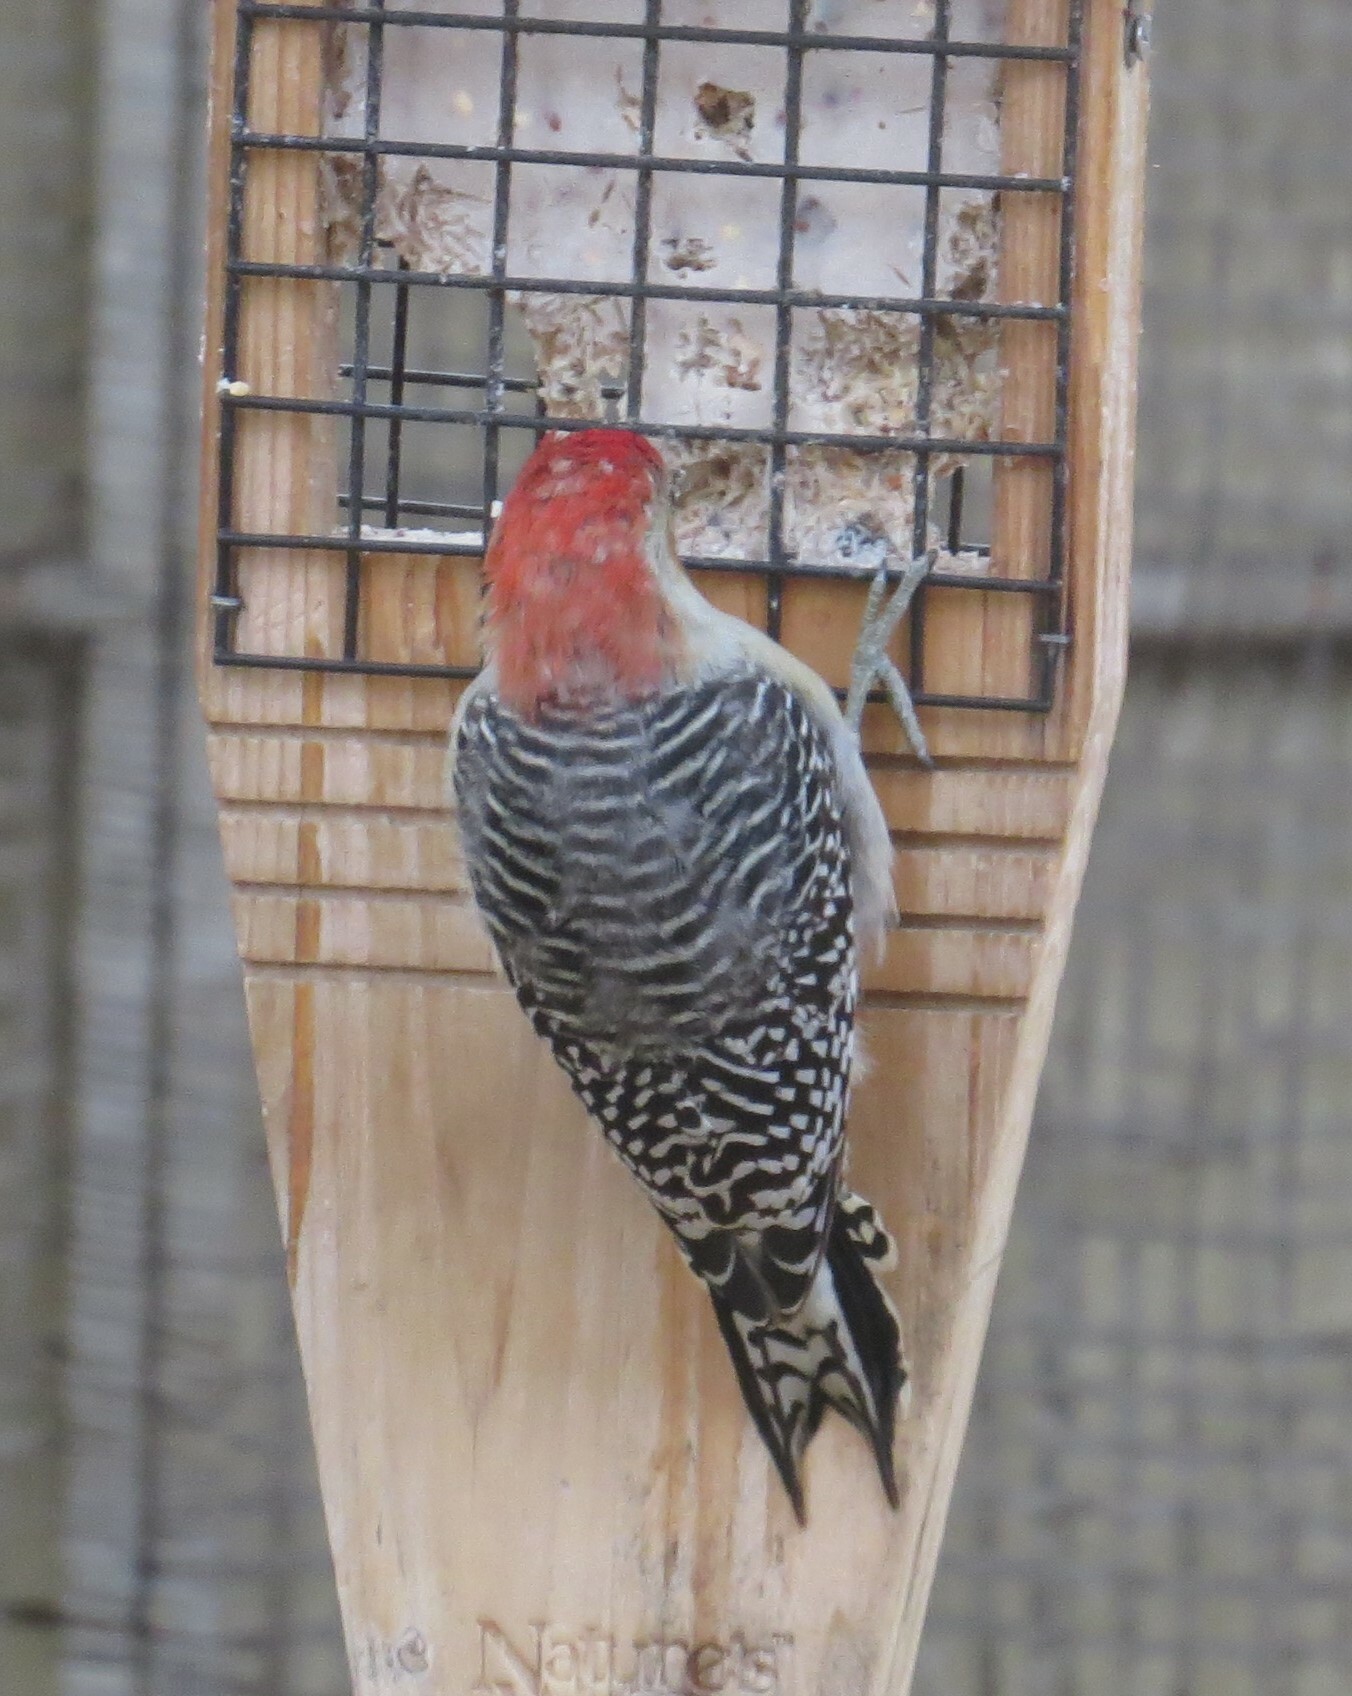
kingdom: Animalia
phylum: Chordata
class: Aves
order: Piciformes
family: Picidae
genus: Melanerpes
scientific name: Melanerpes carolinus
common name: Red-bellied woodpecker
